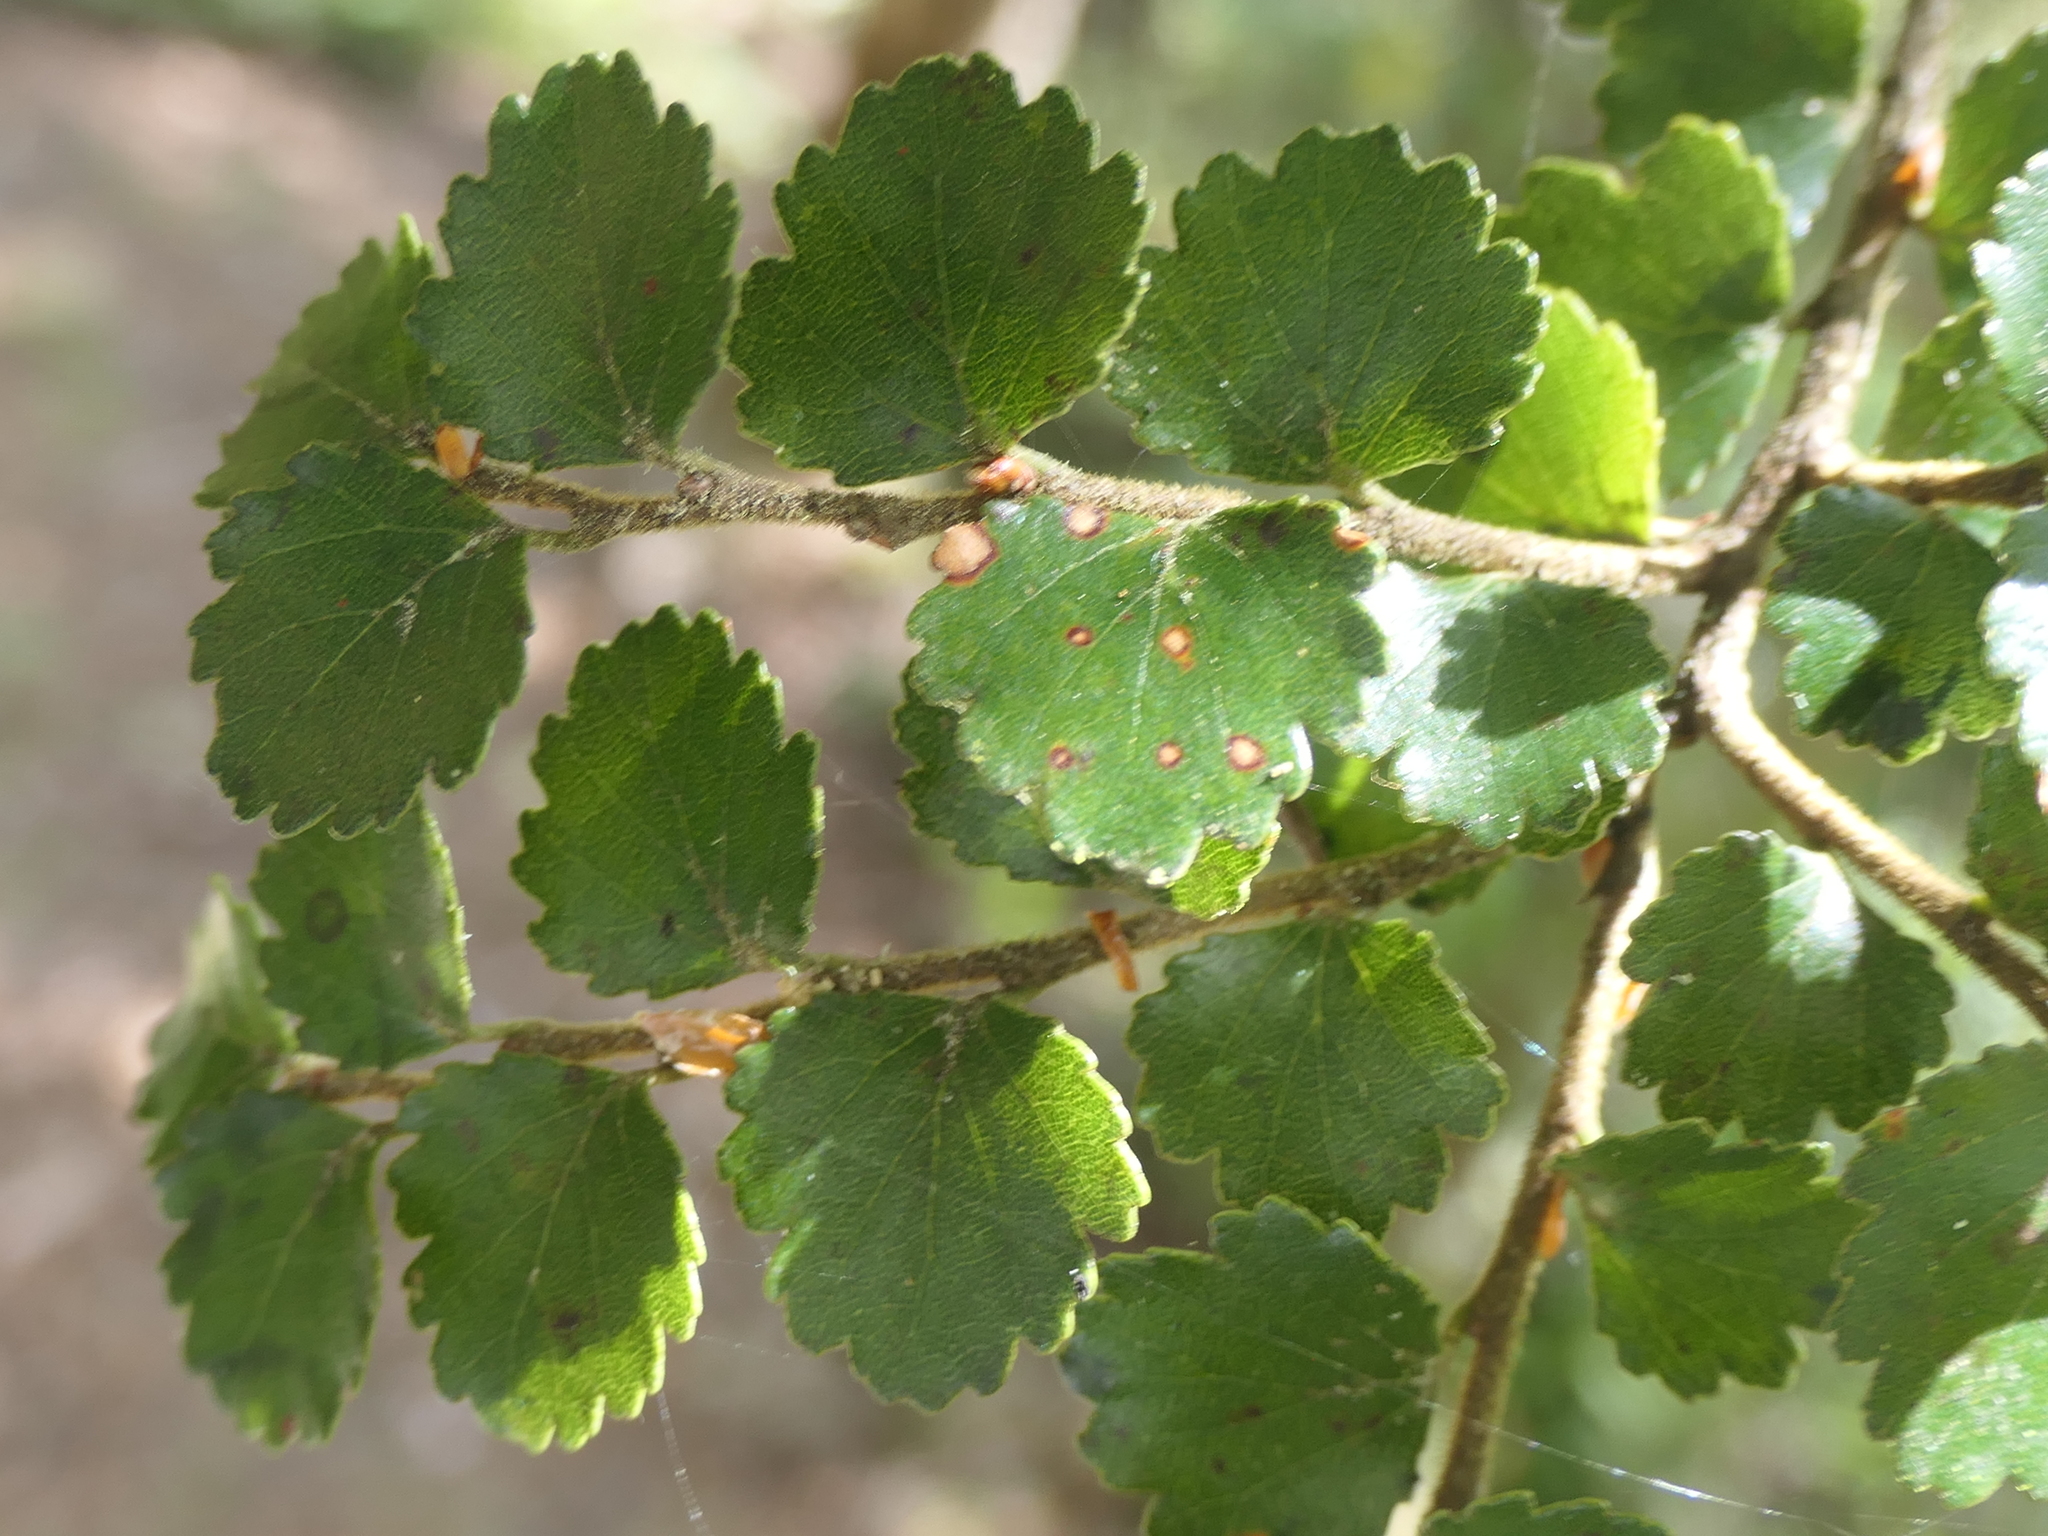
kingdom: Plantae
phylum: Tracheophyta
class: Magnoliopsida
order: Fagales
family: Nothofagaceae
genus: Nothofagus
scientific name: Nothofagus menziesii
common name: Silver beech
